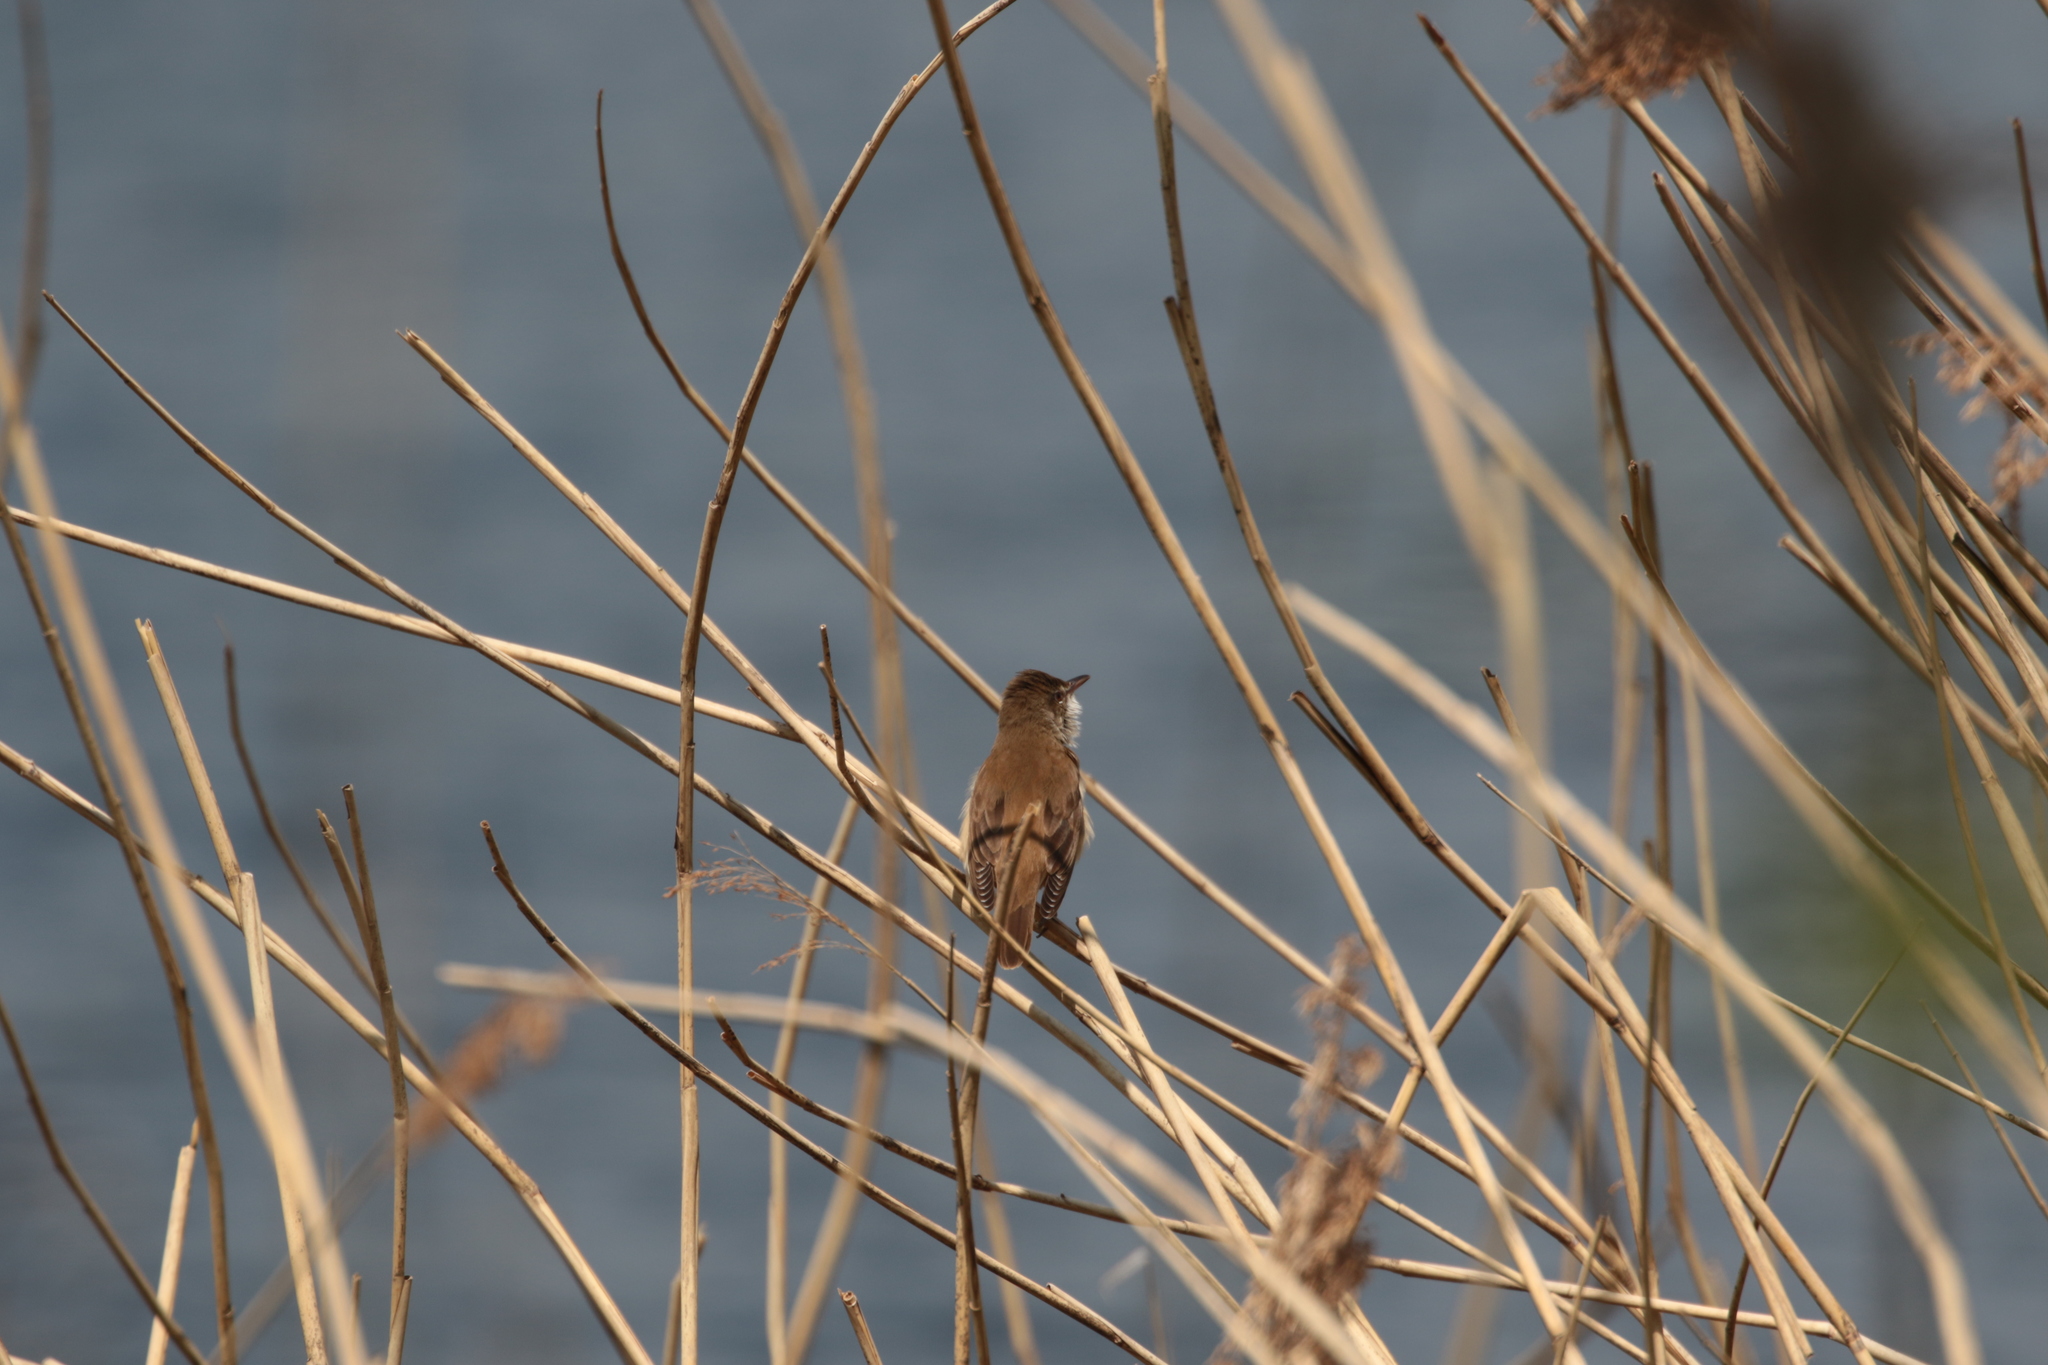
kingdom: Animalia
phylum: Chordata
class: Aves
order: Passeriformes
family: Acrocephalidae
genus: Acrocephalus
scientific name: Acrocephalus arundinaceus
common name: Great reed warbler
